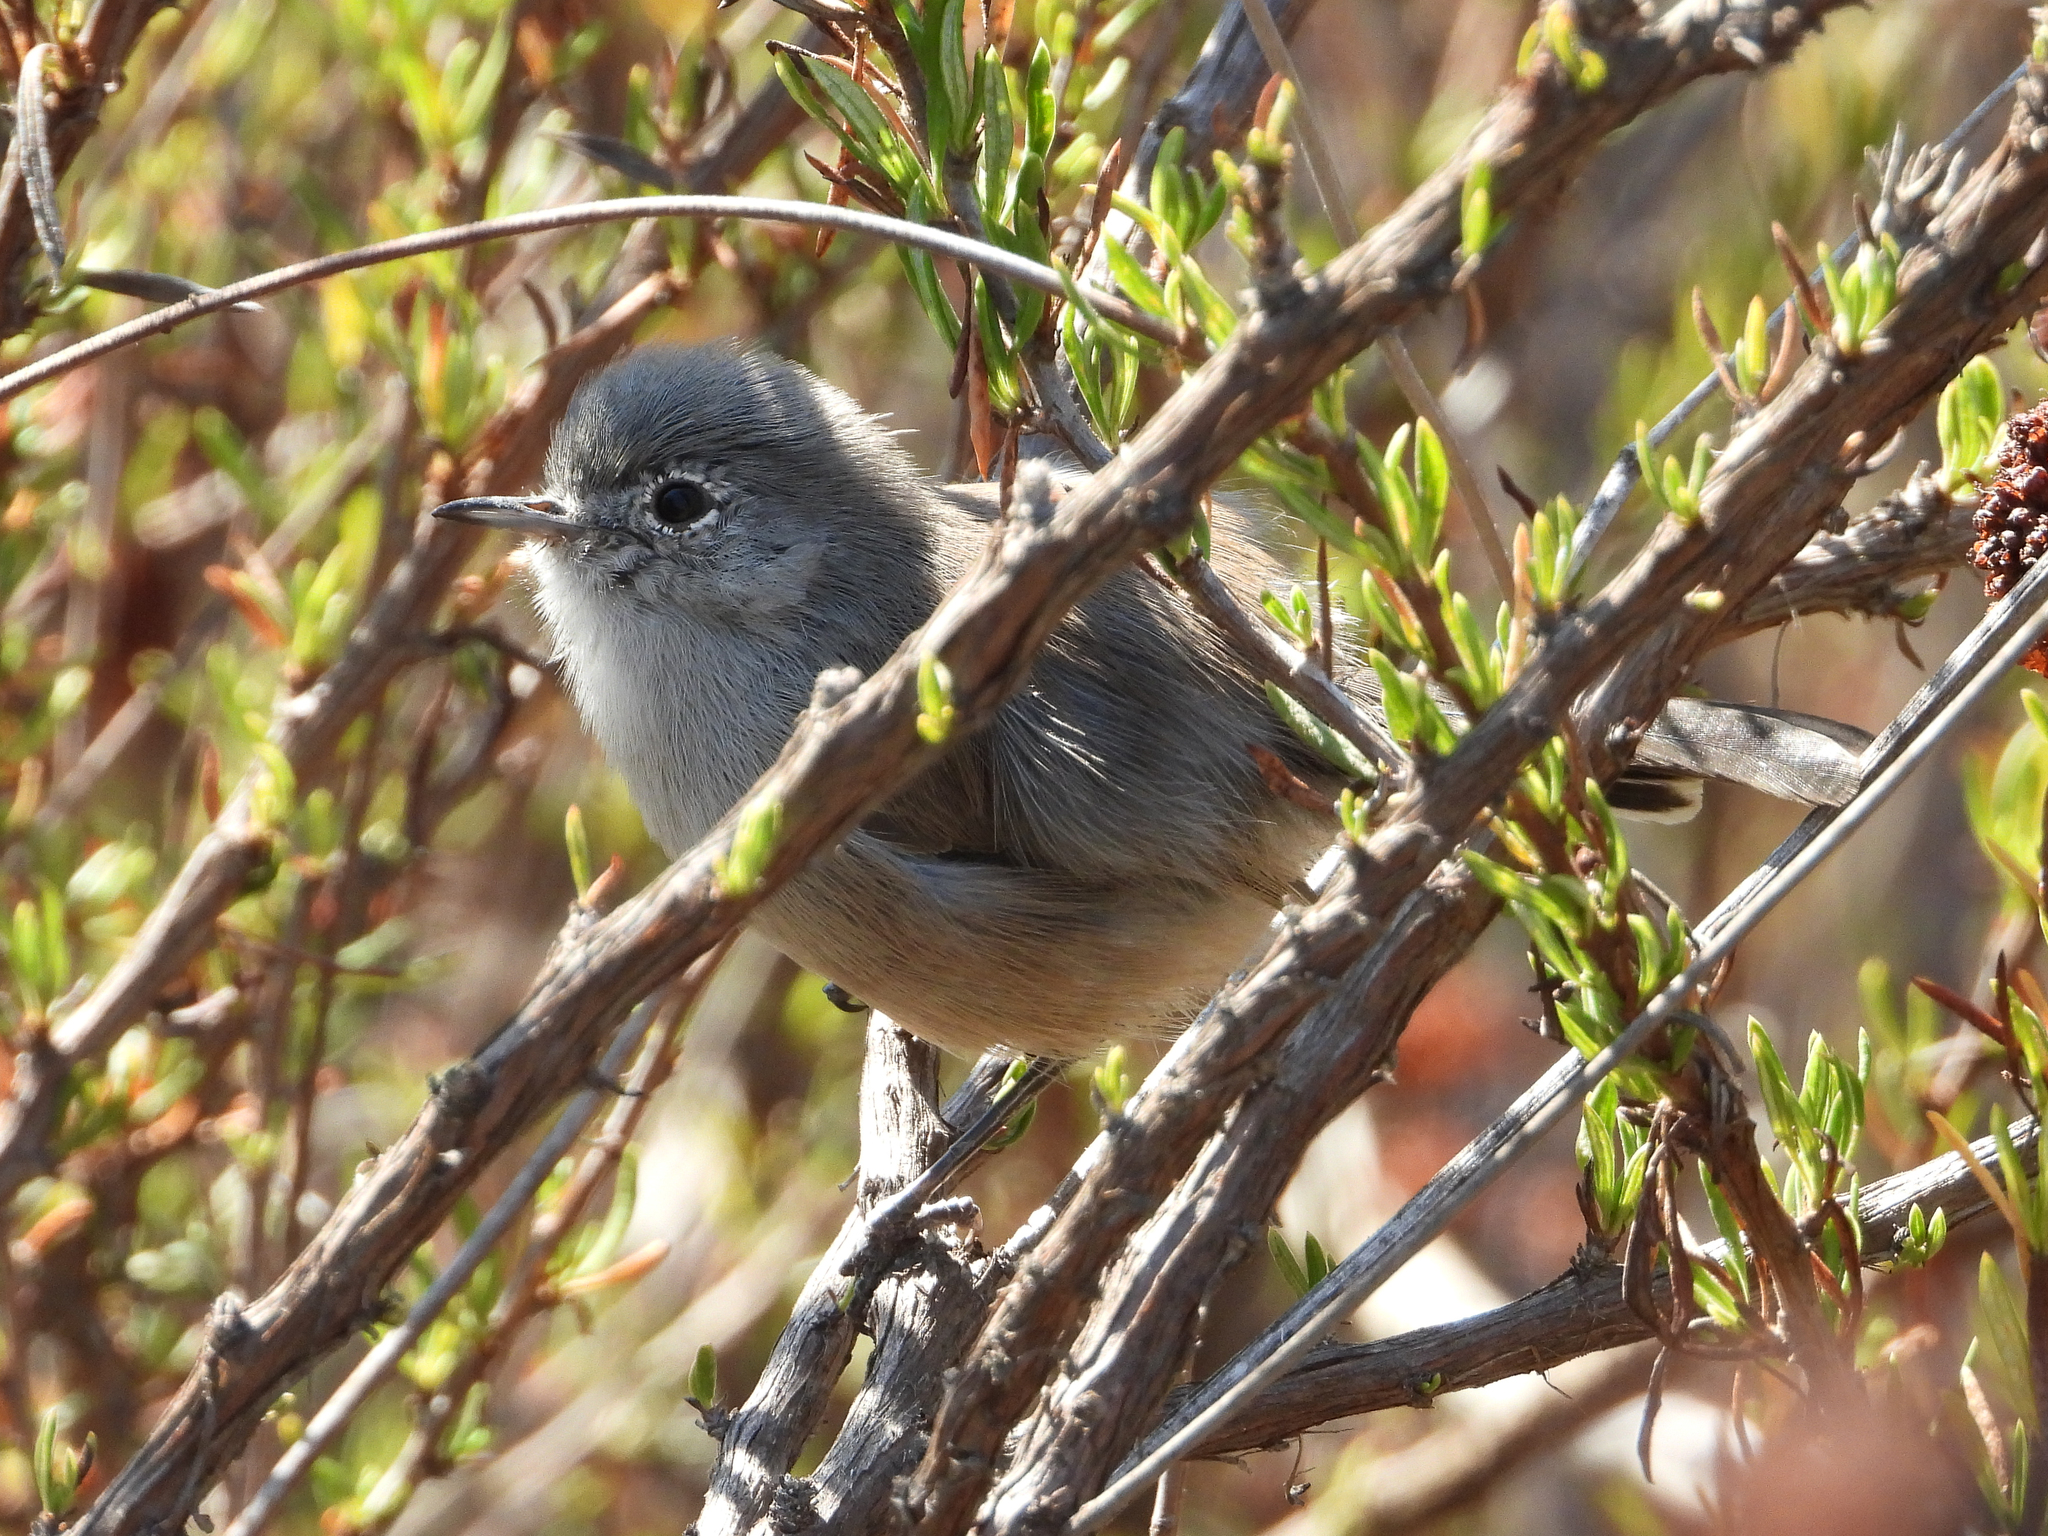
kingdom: Animalia
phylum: Chordata
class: Aves
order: Passeriformes
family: Polioptilidae
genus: Polioptila
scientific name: Polioptila californica
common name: California gnatcatcher
